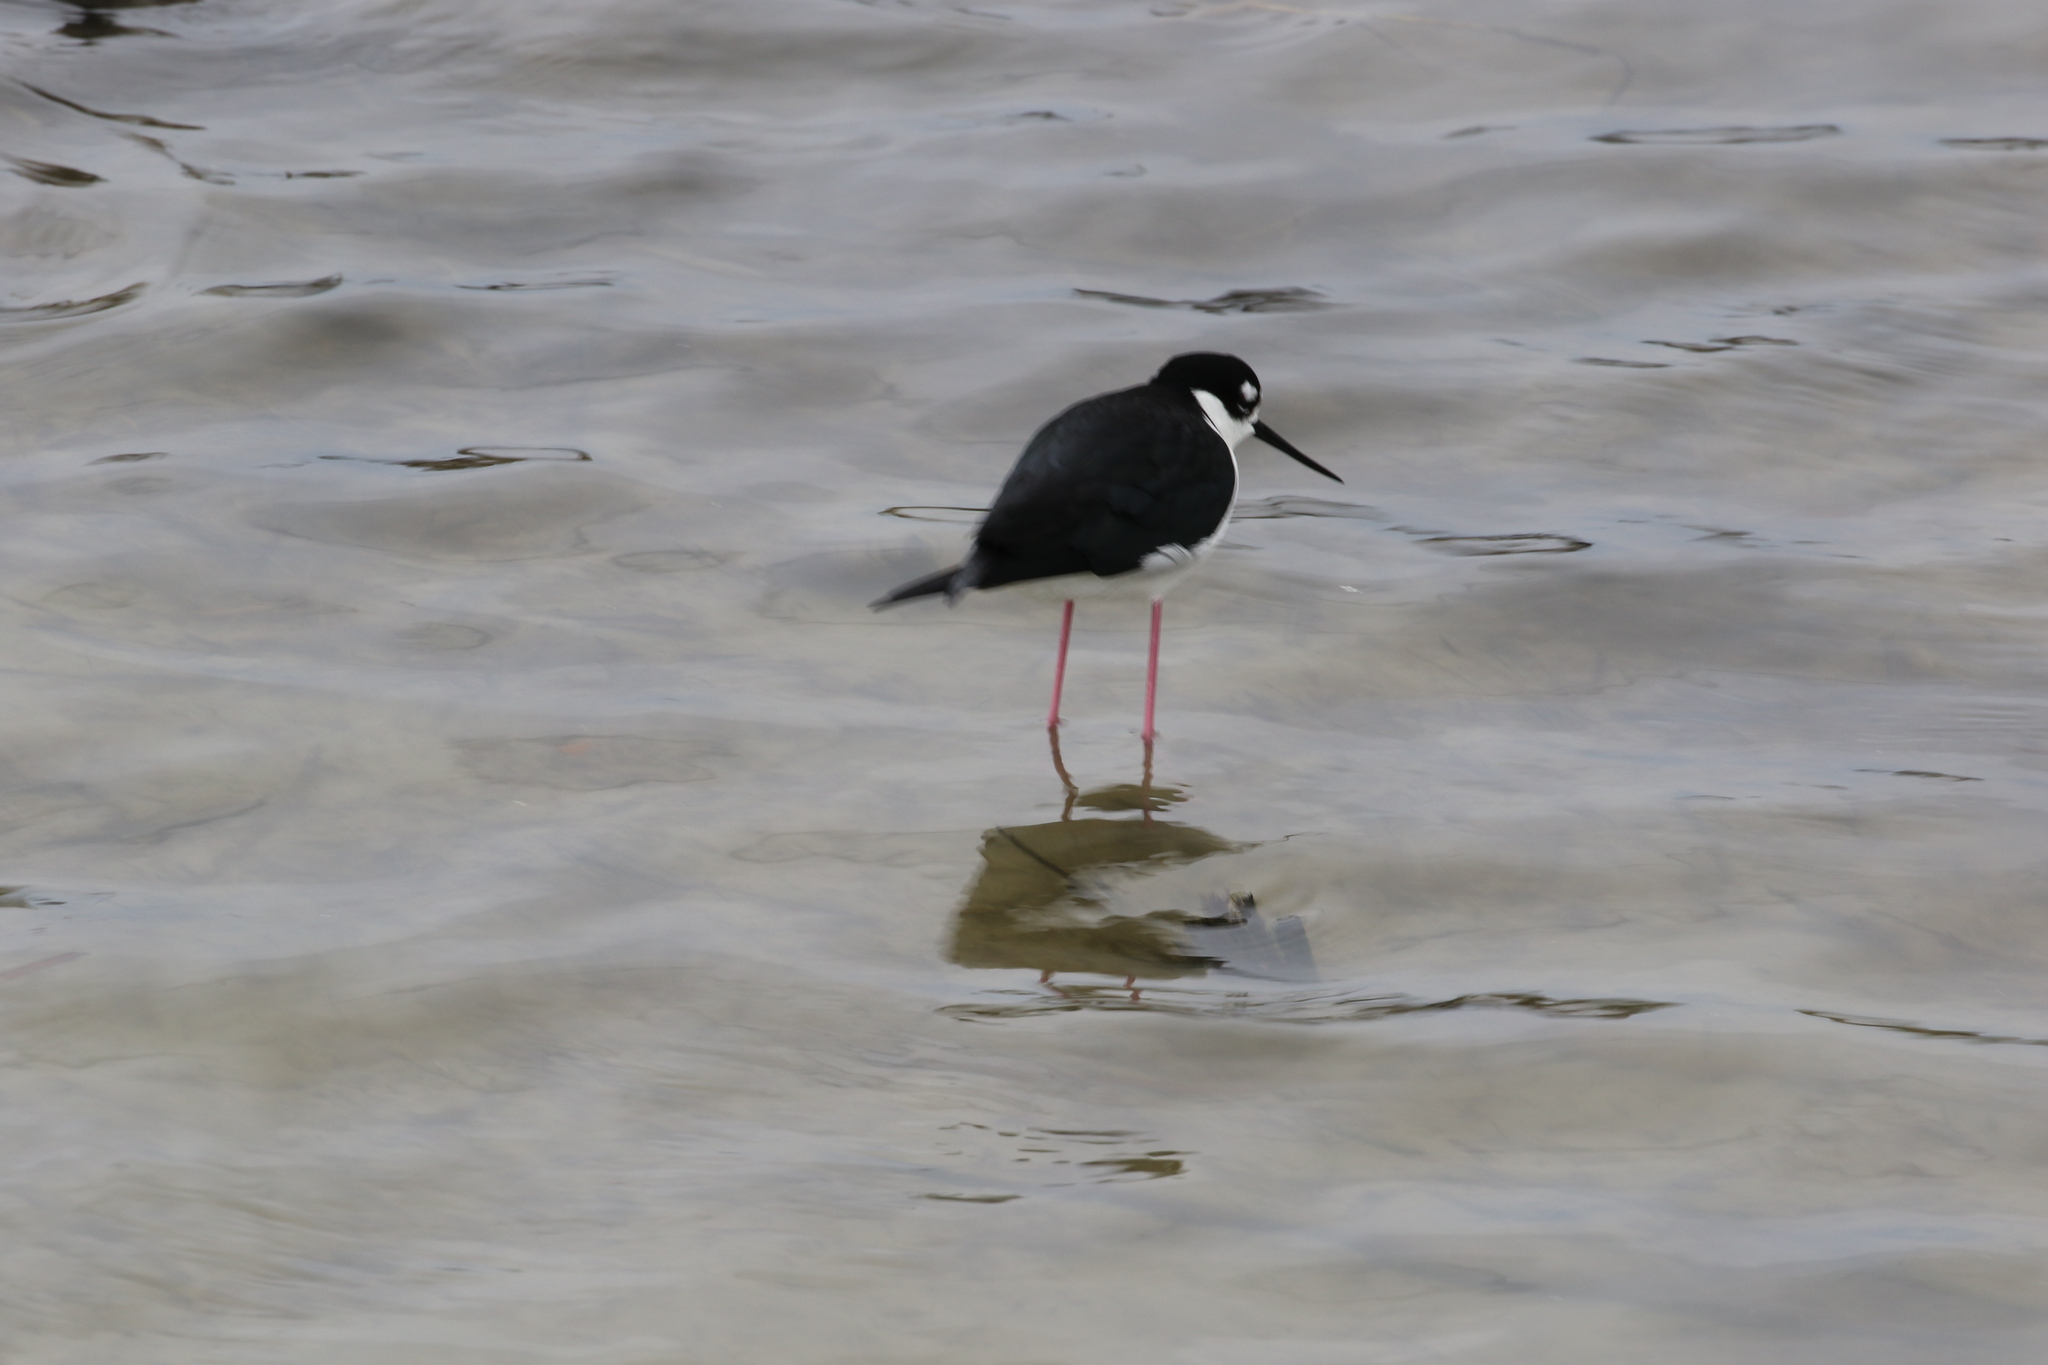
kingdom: Animalia
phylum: Chordata
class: Aves
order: Charadriiformes
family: Recurvirostridae
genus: Himantopus
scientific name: Himantopus mexicanus
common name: Black-necked stilt
